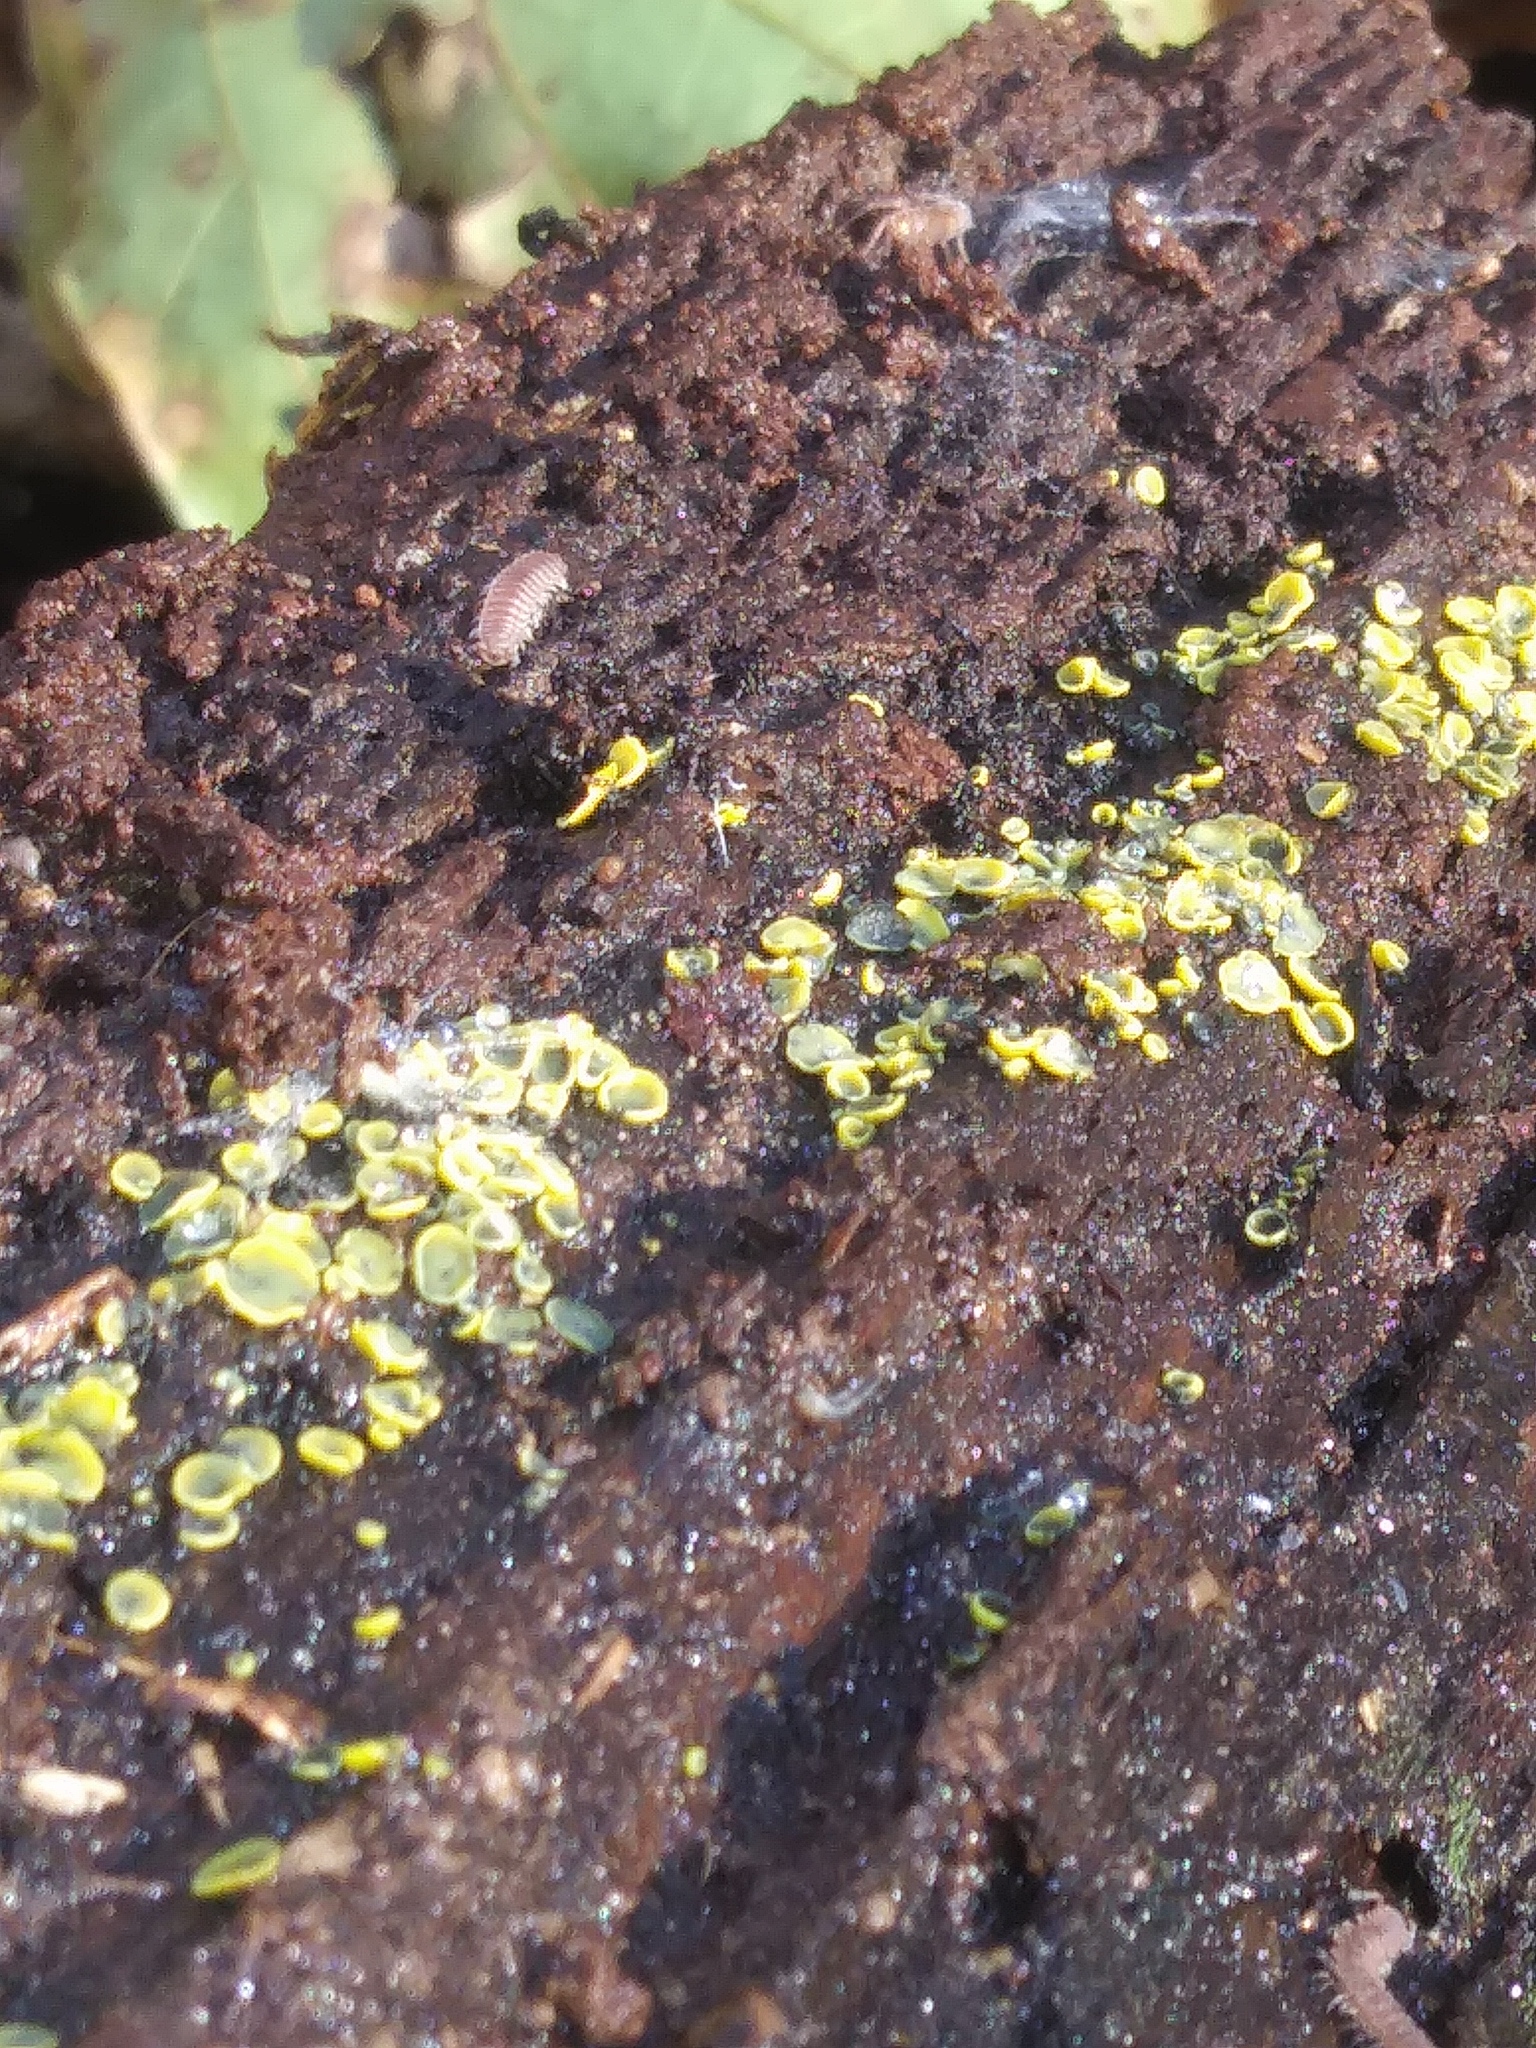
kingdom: Fungi
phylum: Ascomycota
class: Leotiomycetes
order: Helotiales
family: Chlorospleniaceae
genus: Chlorosplenium
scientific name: Chlorosplenium chlora
